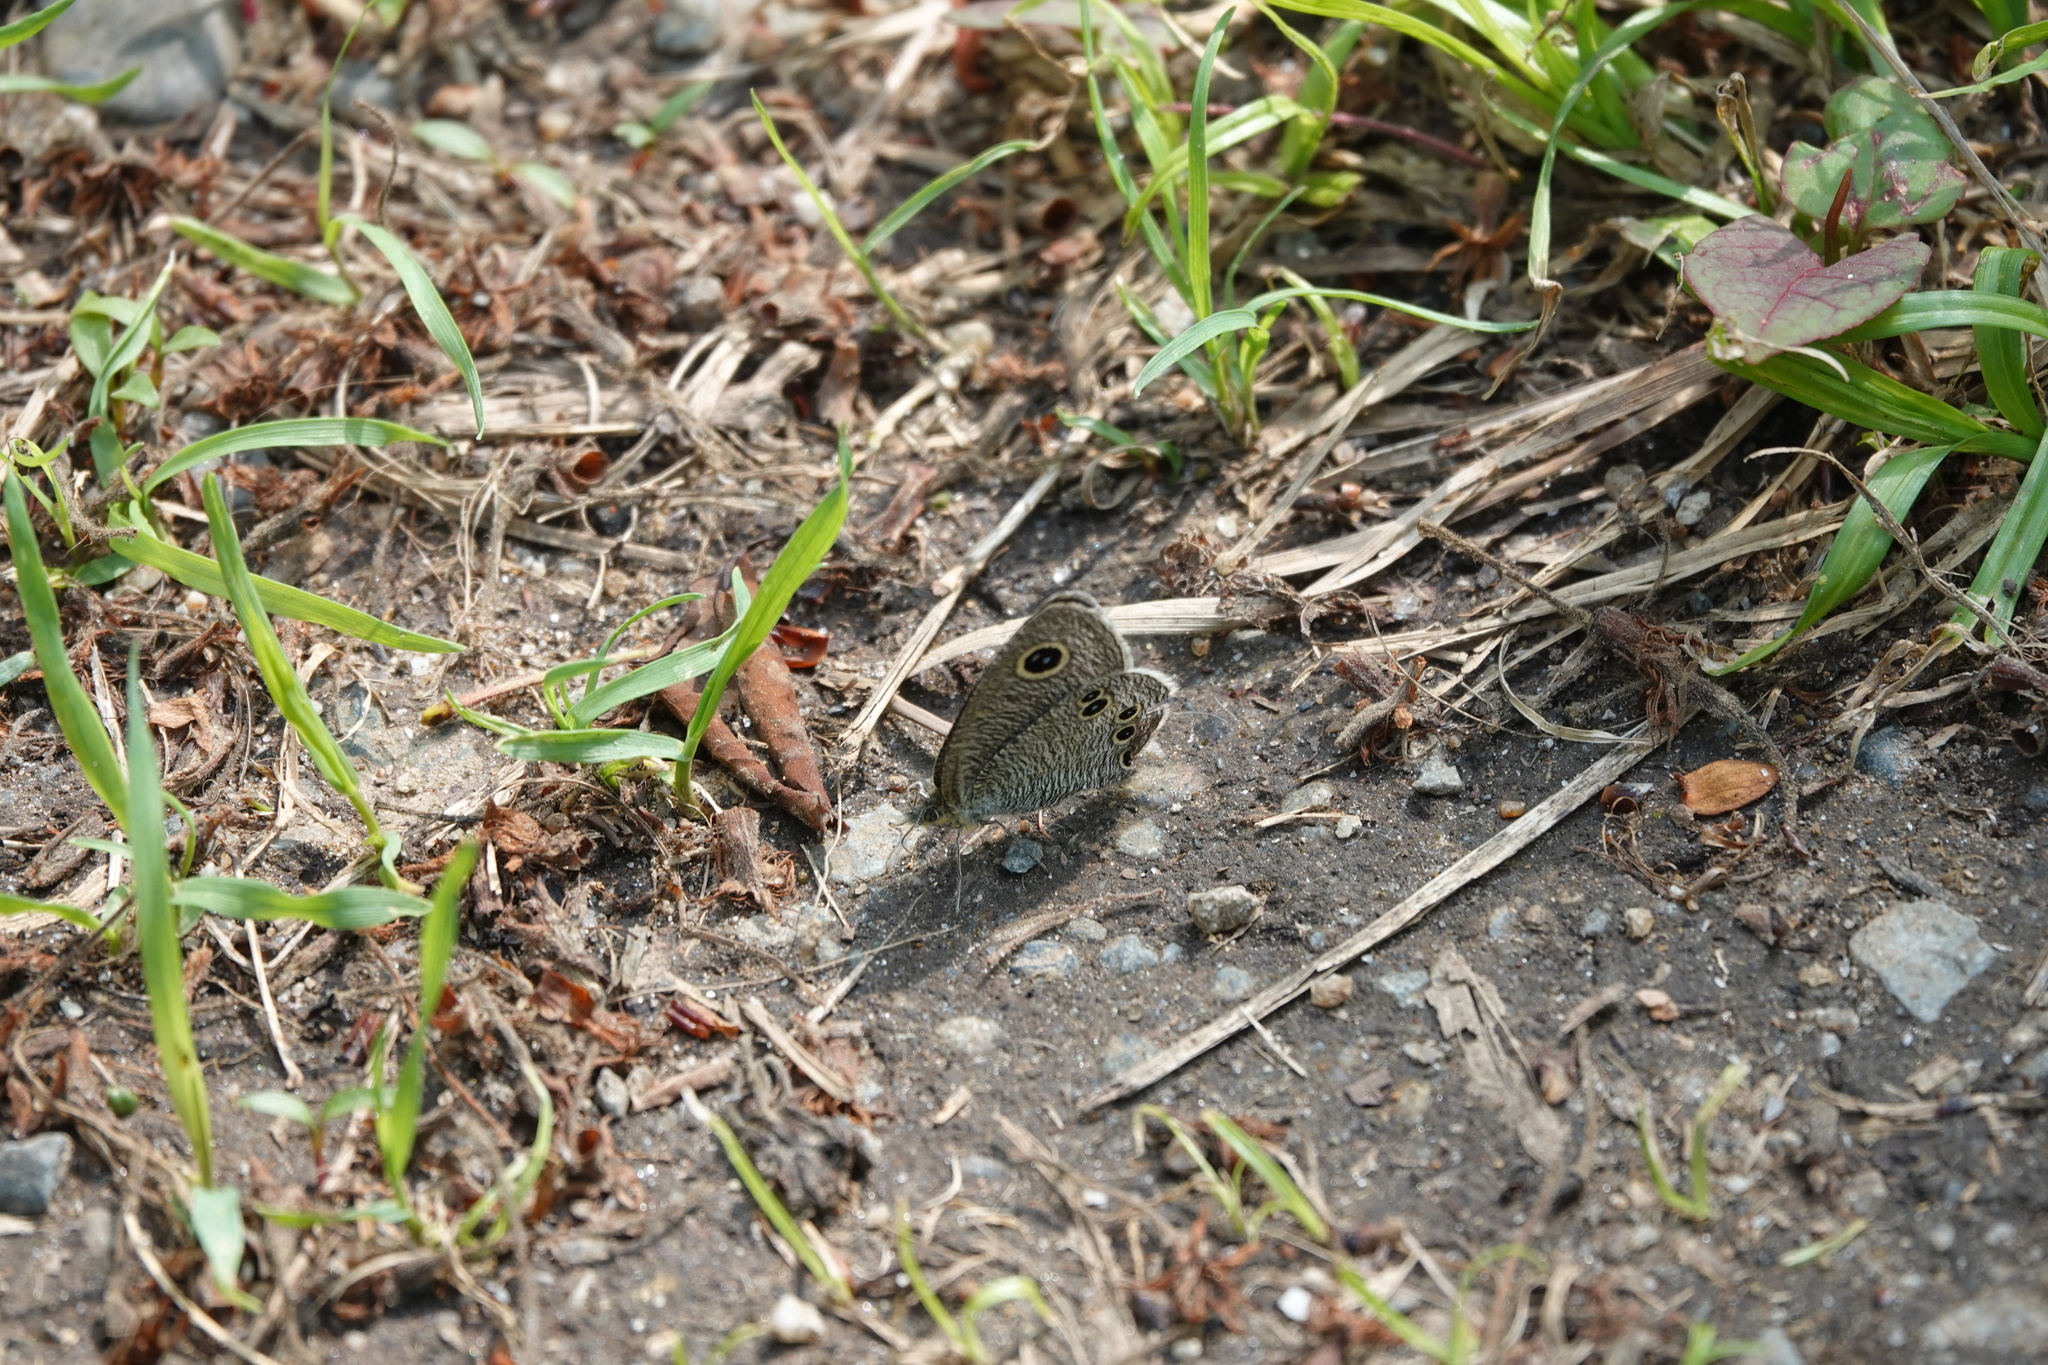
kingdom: Animalia
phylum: Arthropoda
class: Insecta
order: Lepidoptera
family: Nymphalidae
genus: Ypthima
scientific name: Ypthima argus
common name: Common fivering
